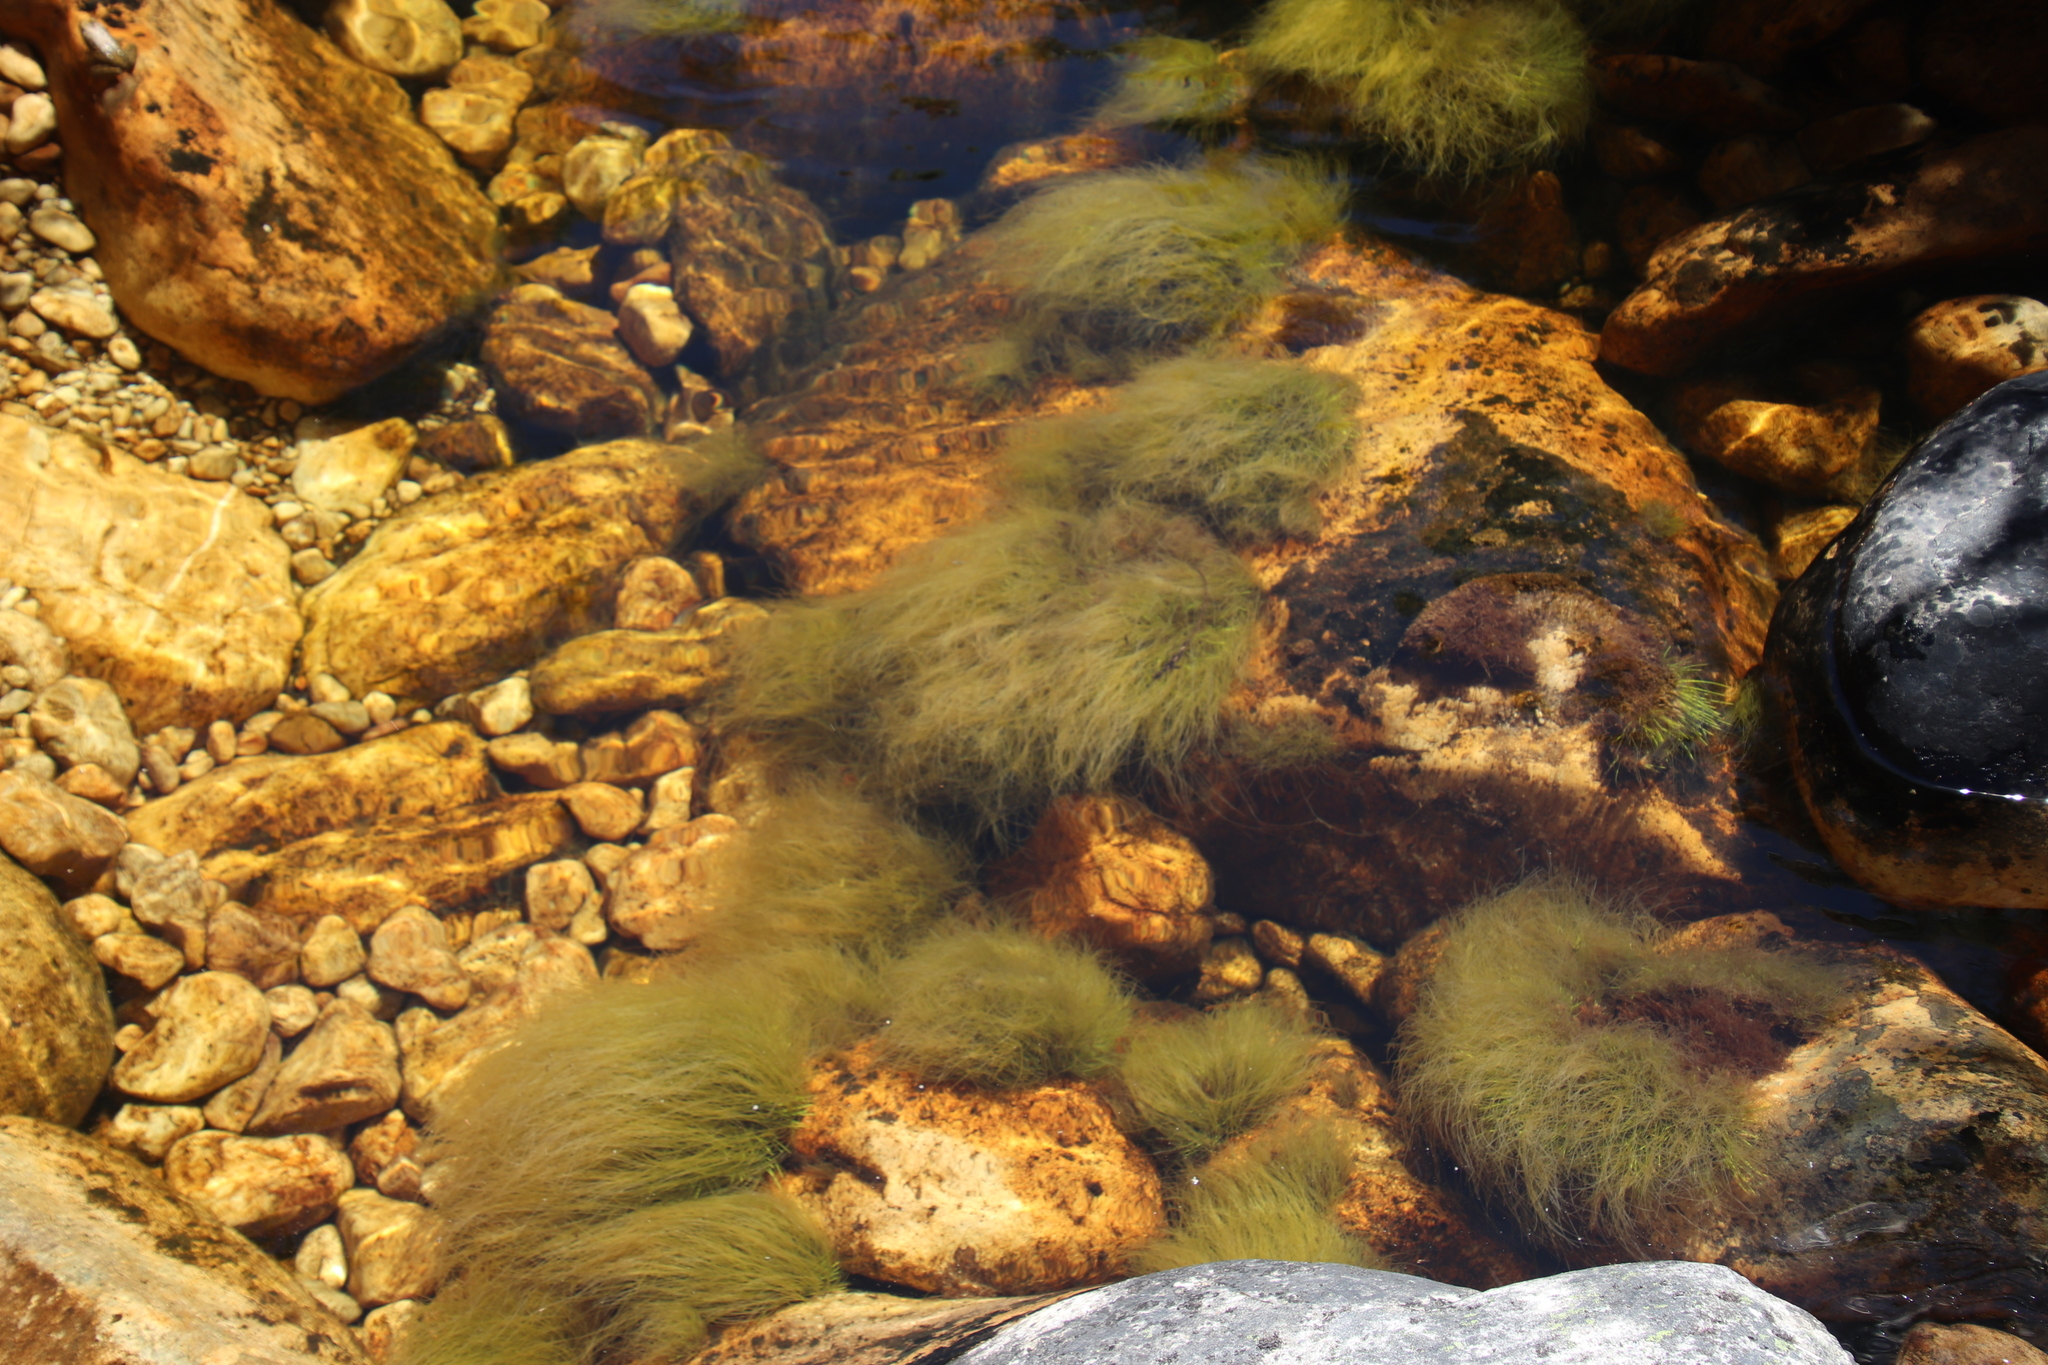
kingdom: Plantae
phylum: Tracheophyta
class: Liliopsida
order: Poales
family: Cyperaceae
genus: Isolepis
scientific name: Isolepis digitata
